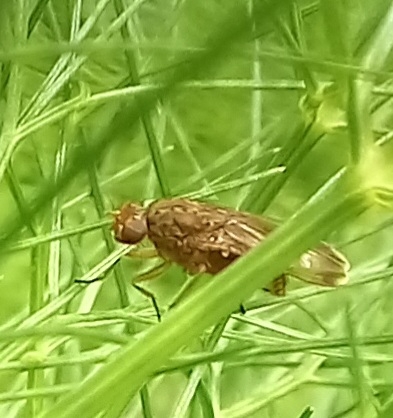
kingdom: Animalia
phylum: Arthropoda
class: Insecta
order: Diptera
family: Heleomyzidae
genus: Suillia
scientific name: Suillia variegata
